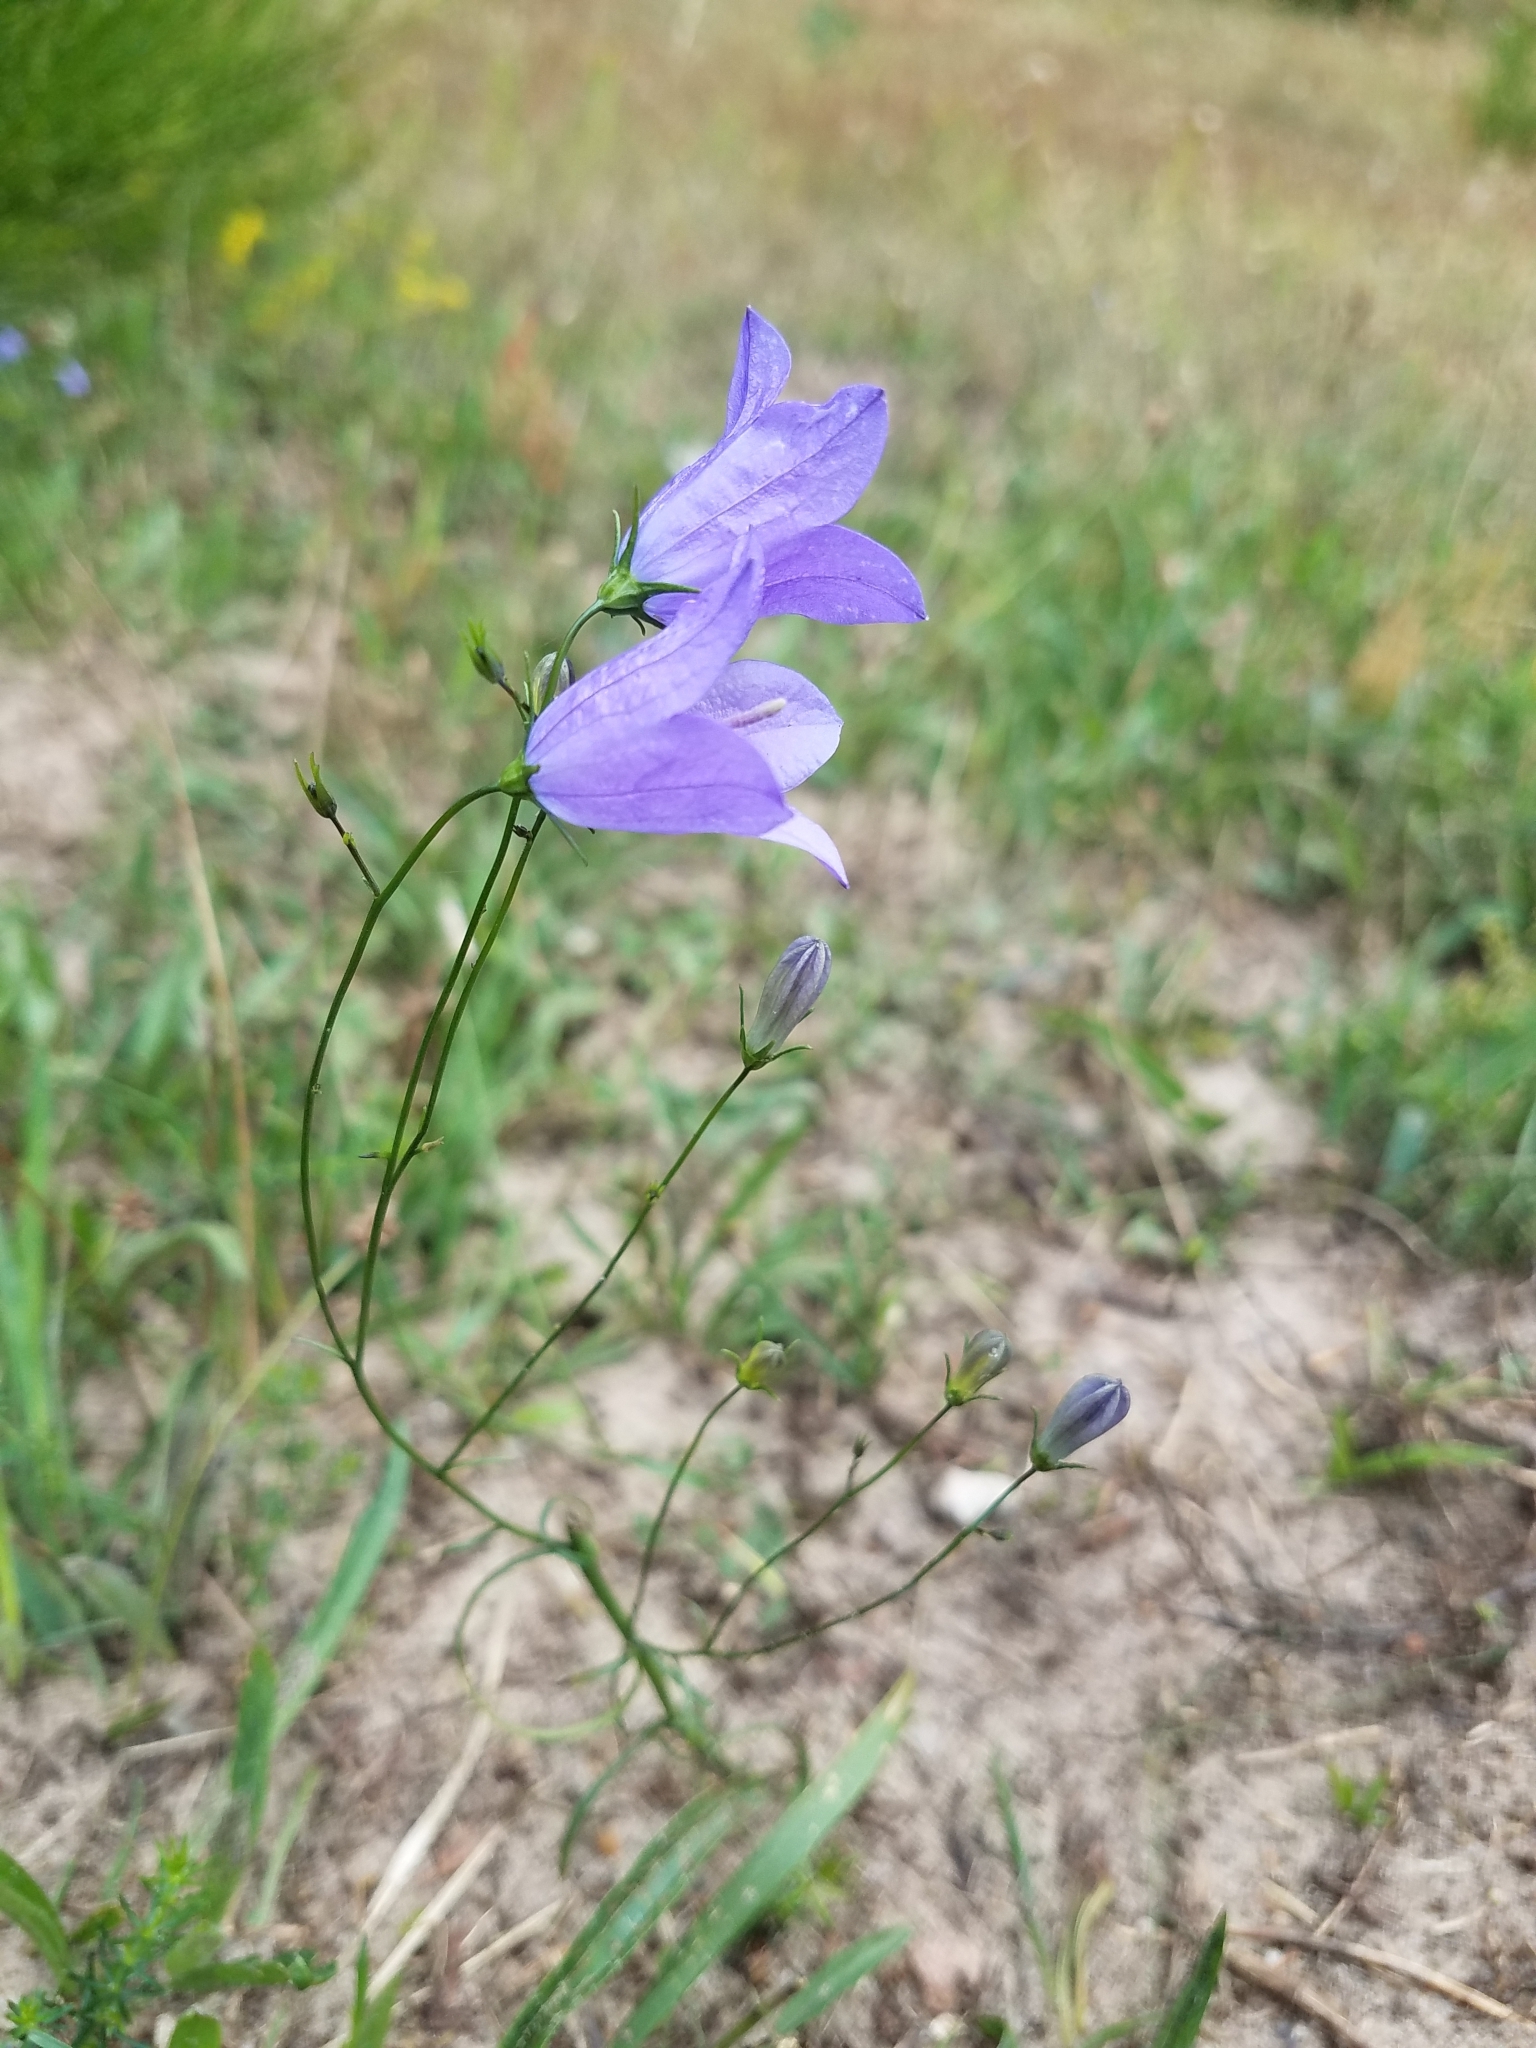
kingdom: Plantae
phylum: Tracheophyta
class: Magnoliopsida
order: Asterales
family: Campanulaceae
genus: Campanula
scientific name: Campanula rotundifolia
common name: Harebell
